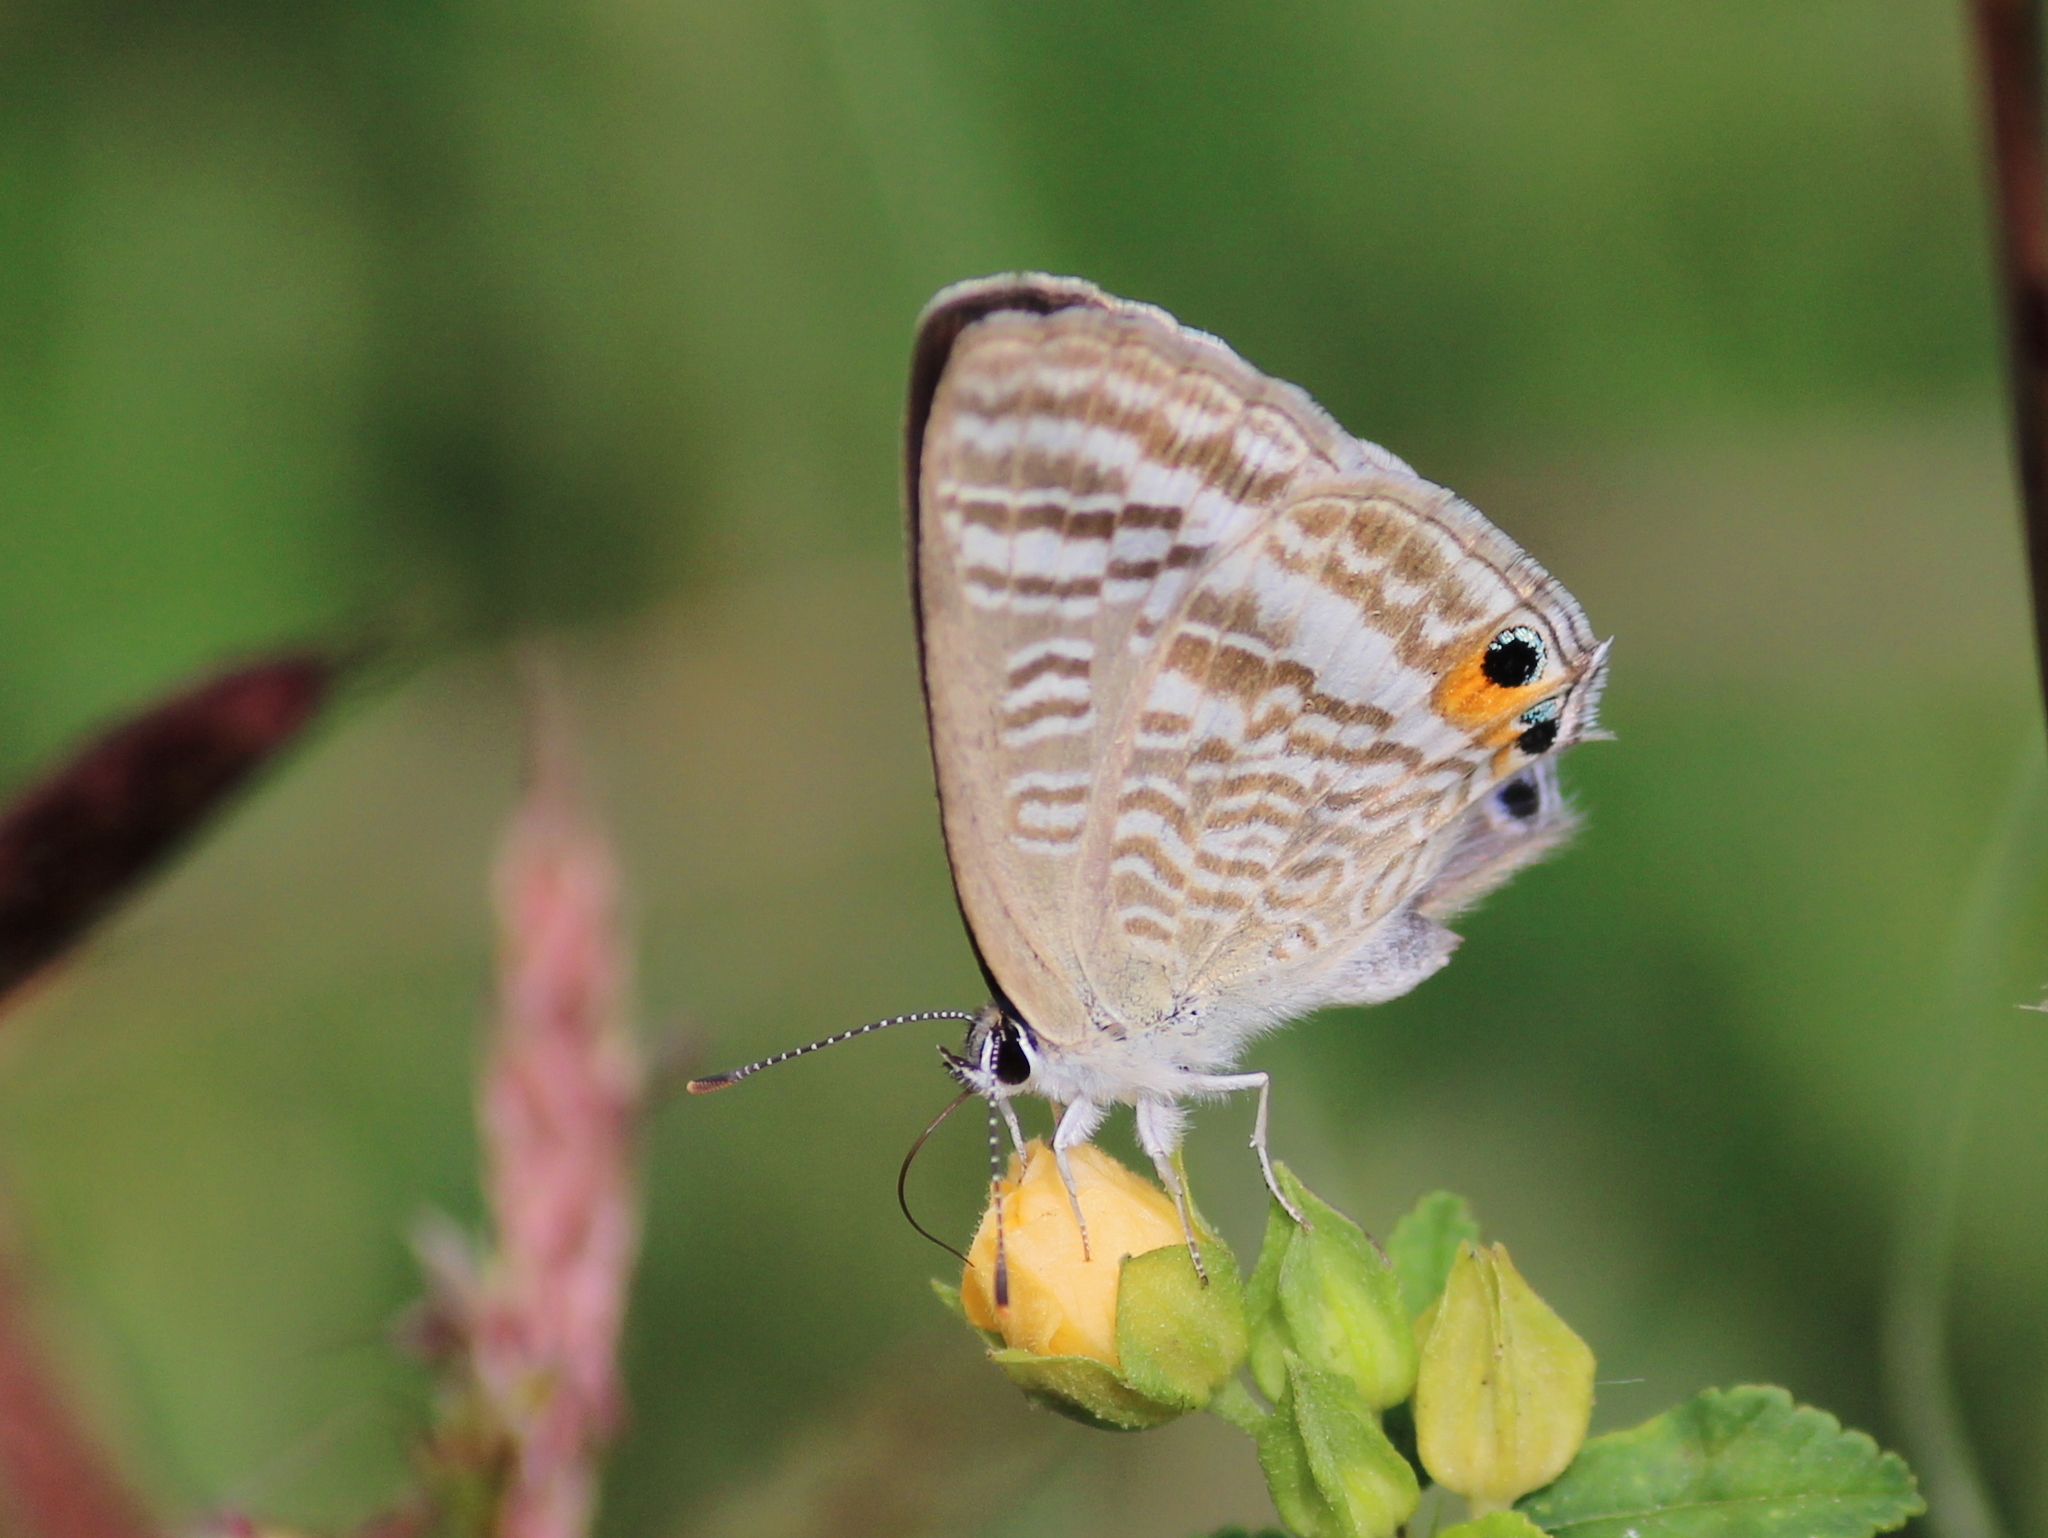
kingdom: Animalia
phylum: Arthropoda
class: Insecta
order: Lepidoptera
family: Lycaenidae
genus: Lampides
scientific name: Lampides boeticus
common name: Long-tailed blue
